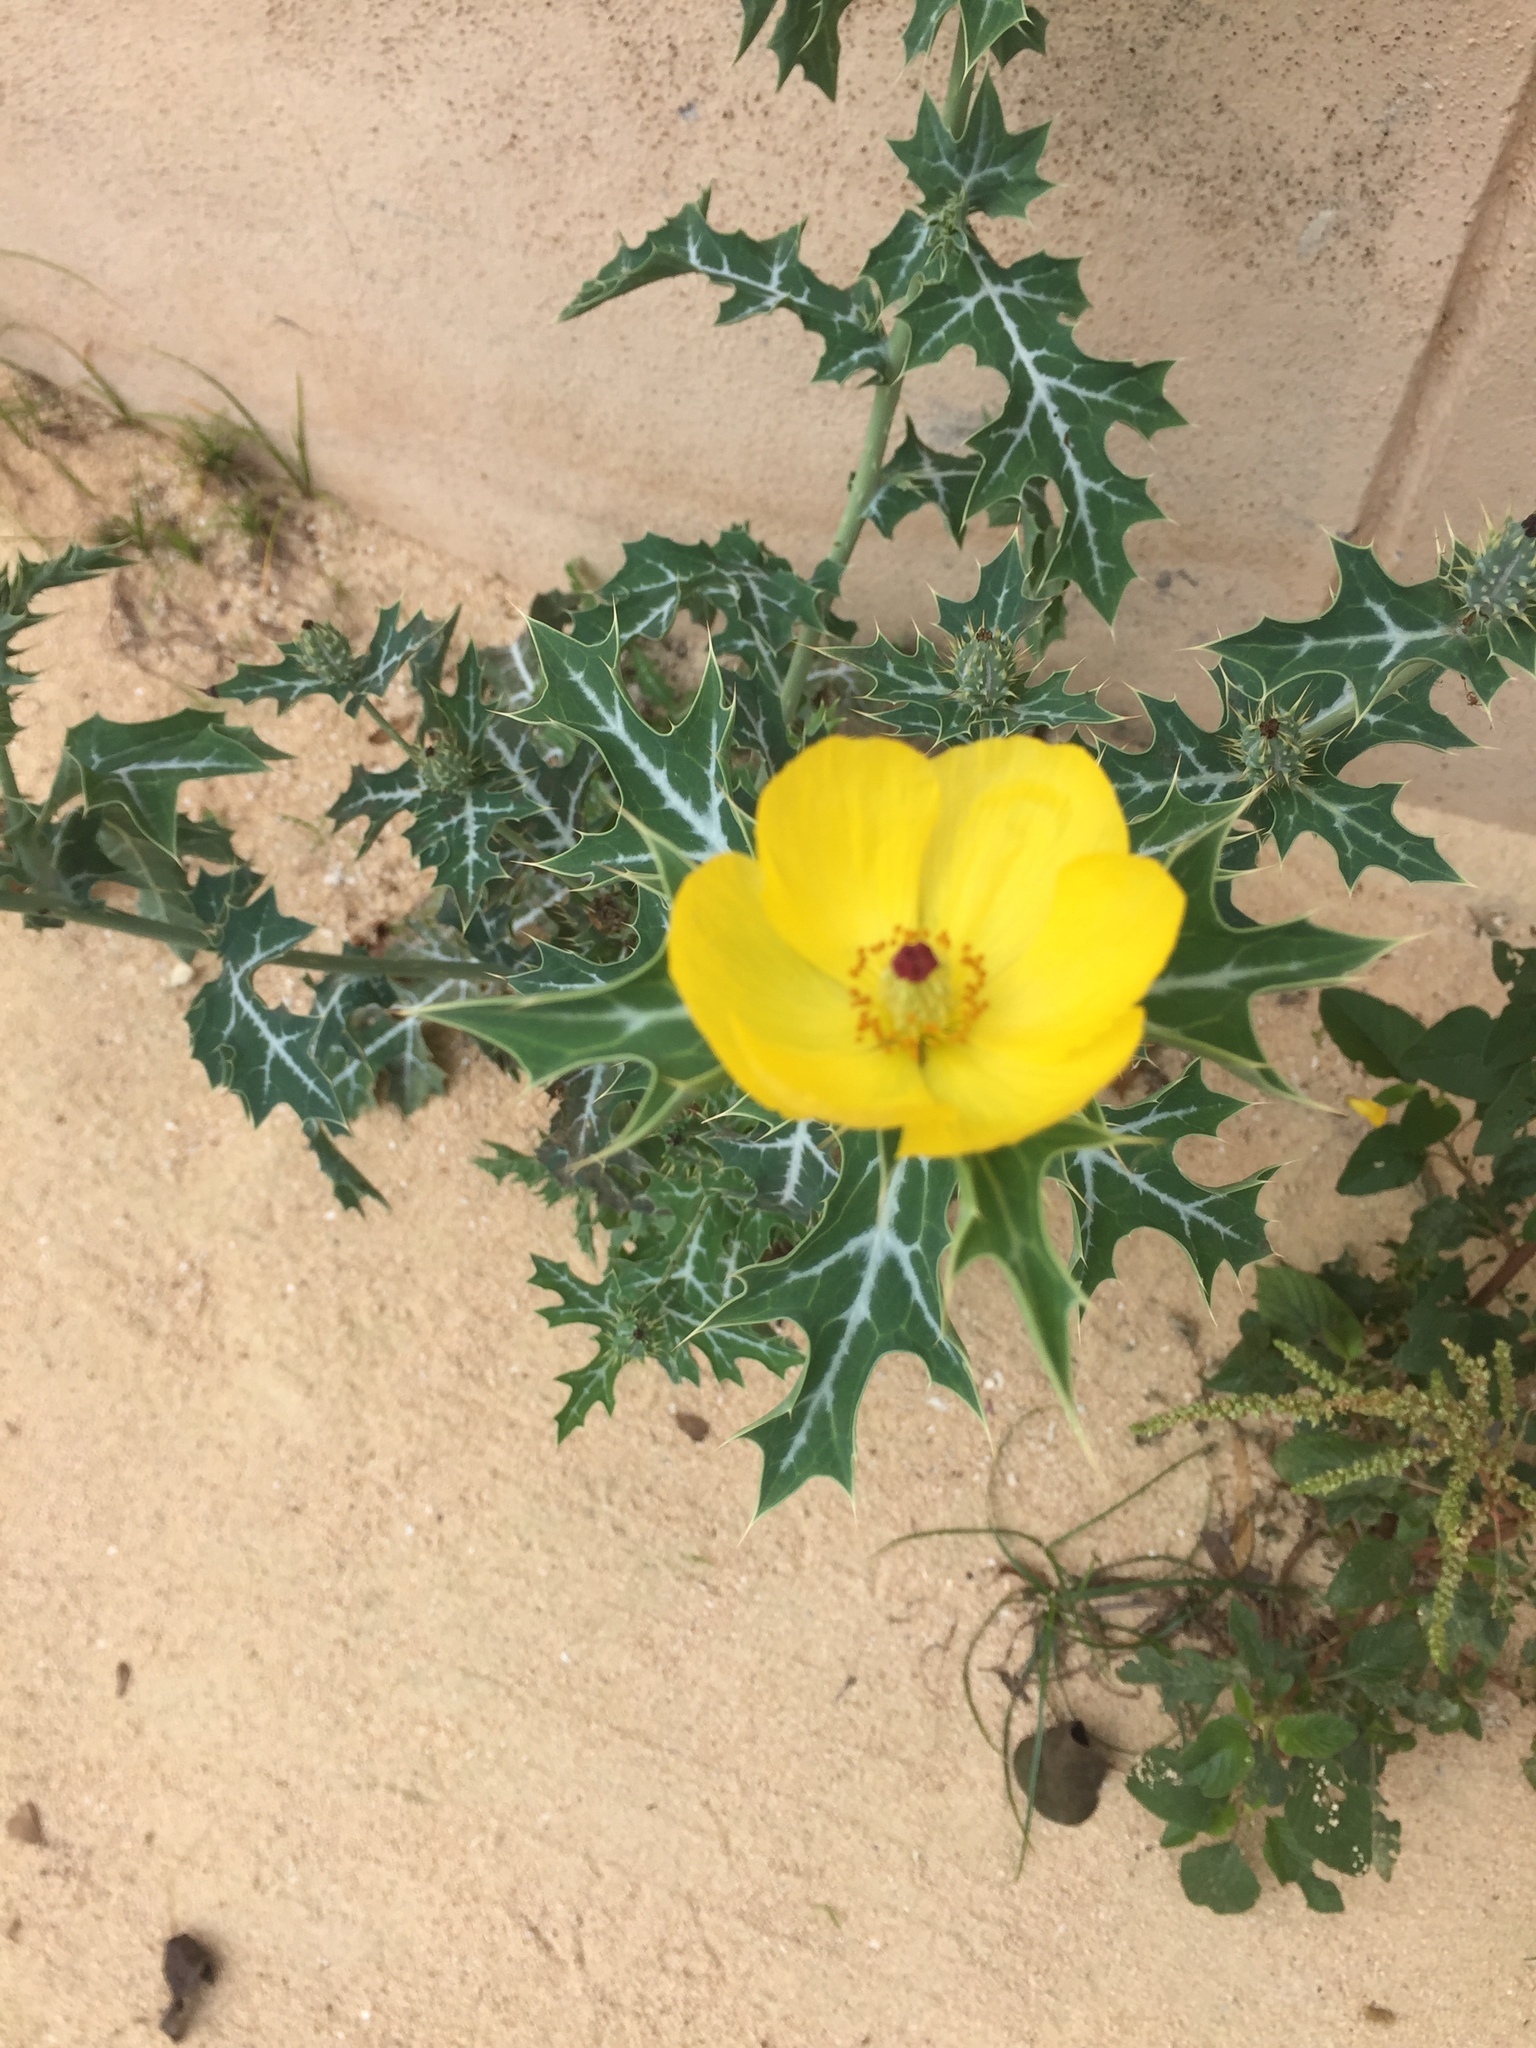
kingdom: Plantae
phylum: Tracheophyta
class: Magnoliopsida
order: Ranunculales
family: Papaveraceae
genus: Argemone
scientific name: Argemone mexicana
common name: Mexican poppy
